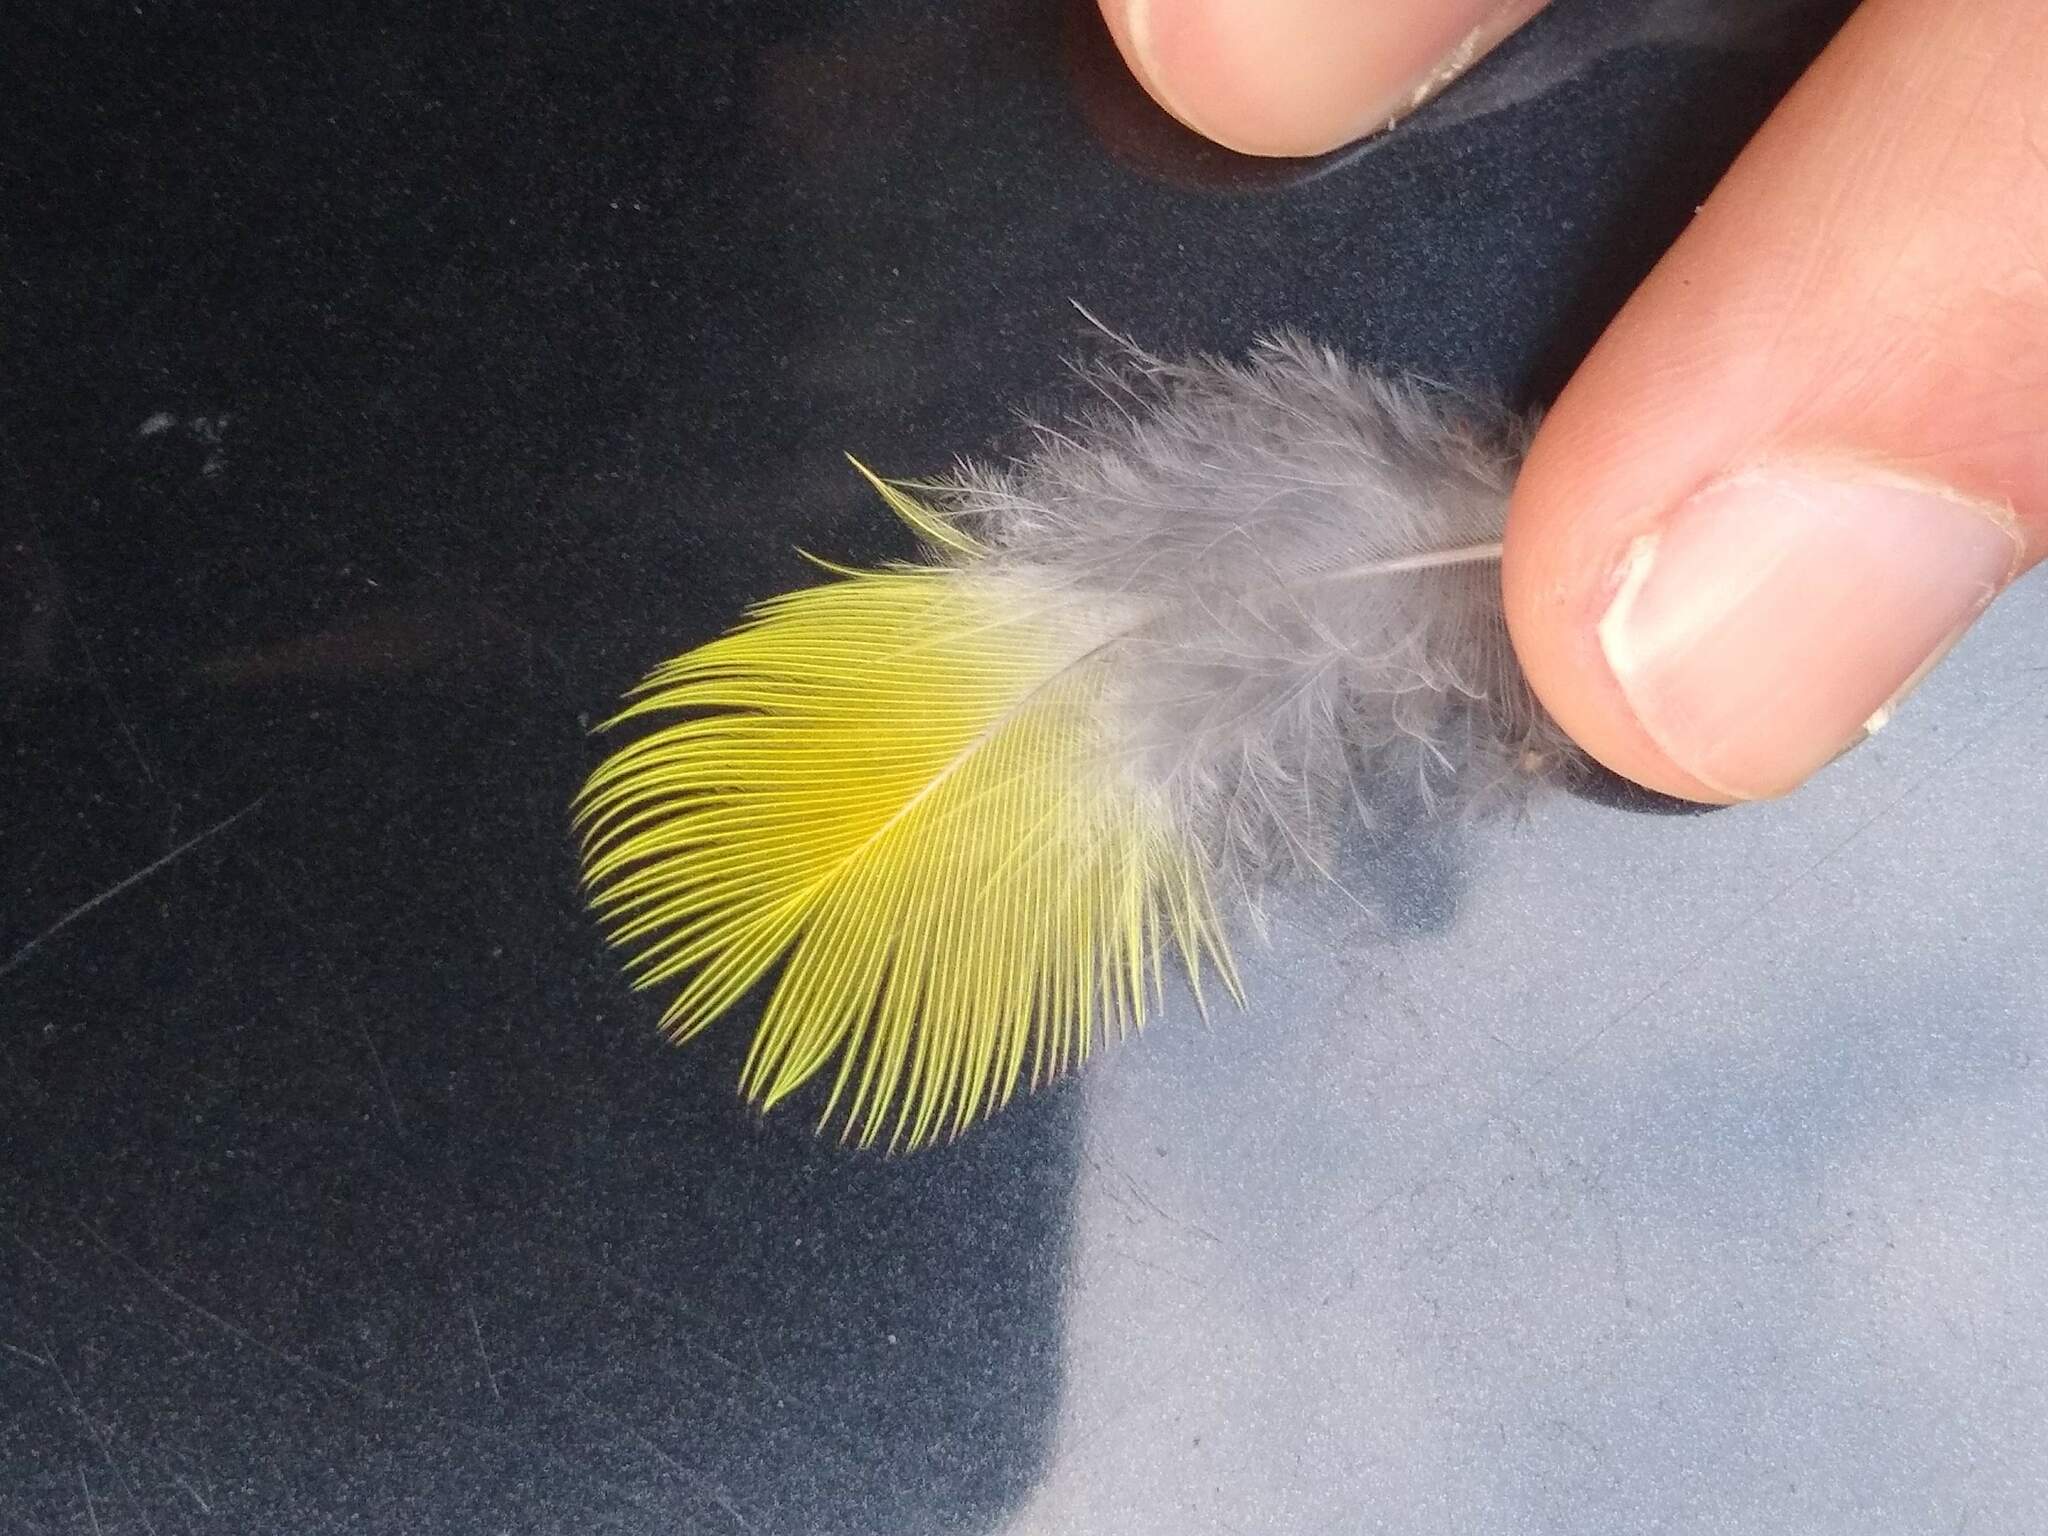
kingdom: Animalia
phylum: Chordata
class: Aves
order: Psittaciformes
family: Psittacidae
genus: Platycercus
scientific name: Platycercus eximius
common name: Eastern rosella
